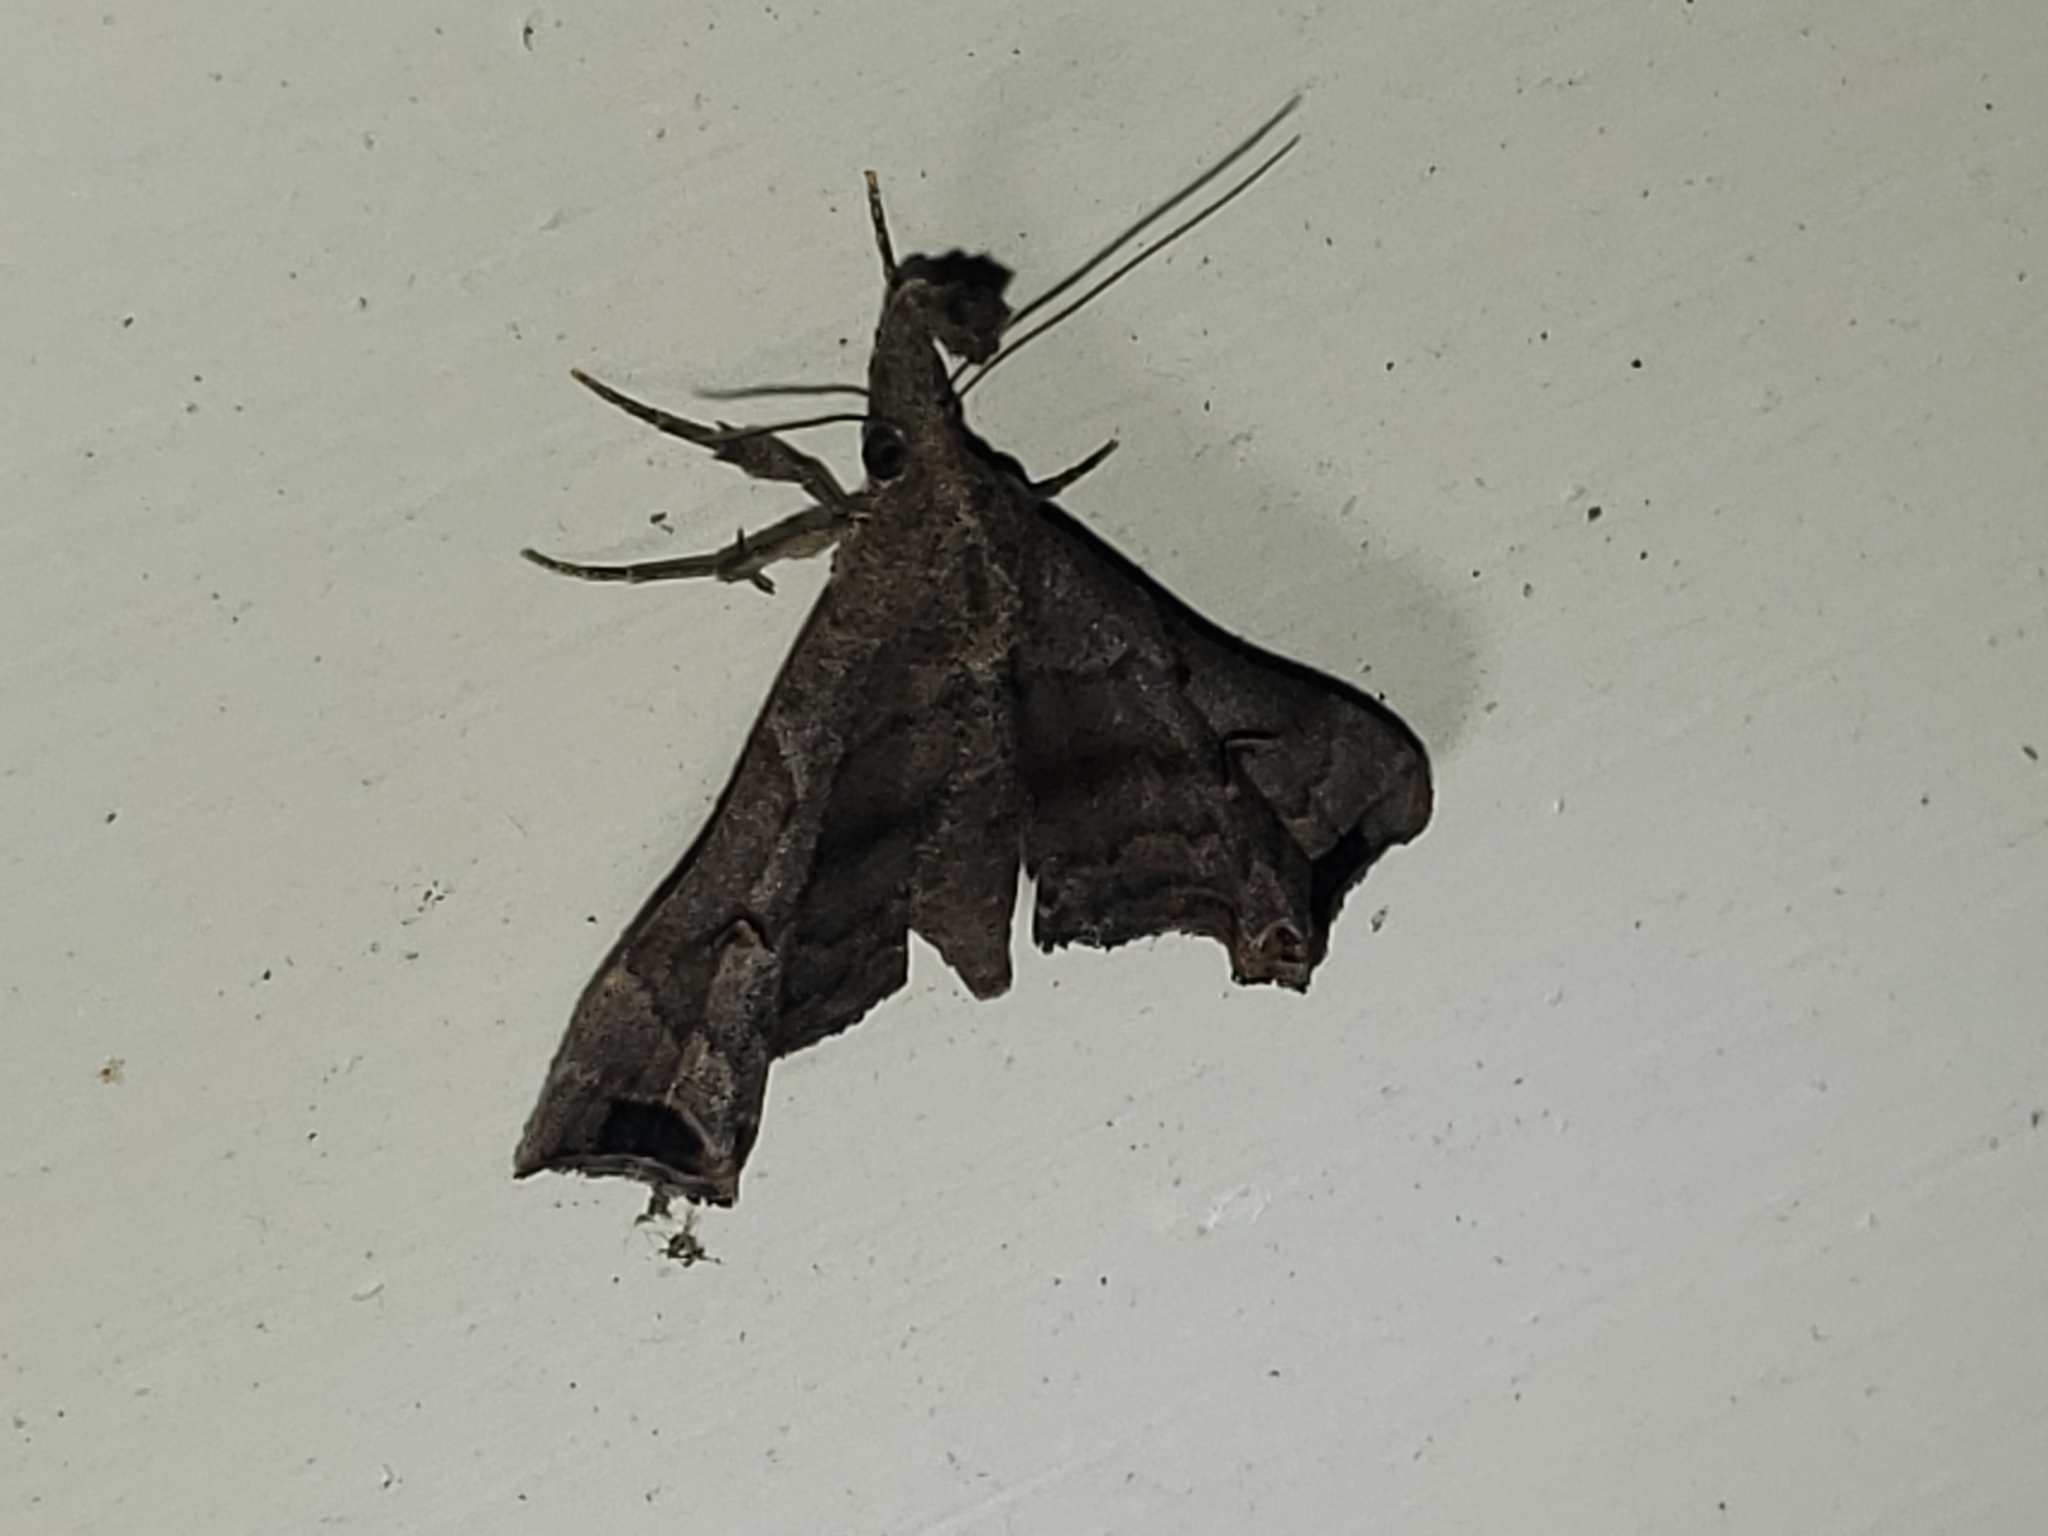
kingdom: Animalia
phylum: Arthropoda
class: Insecta
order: Lepidoptera
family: Erebidae
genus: Palthis
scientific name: Palthis asopialis
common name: Faint-spotted palthis moth
